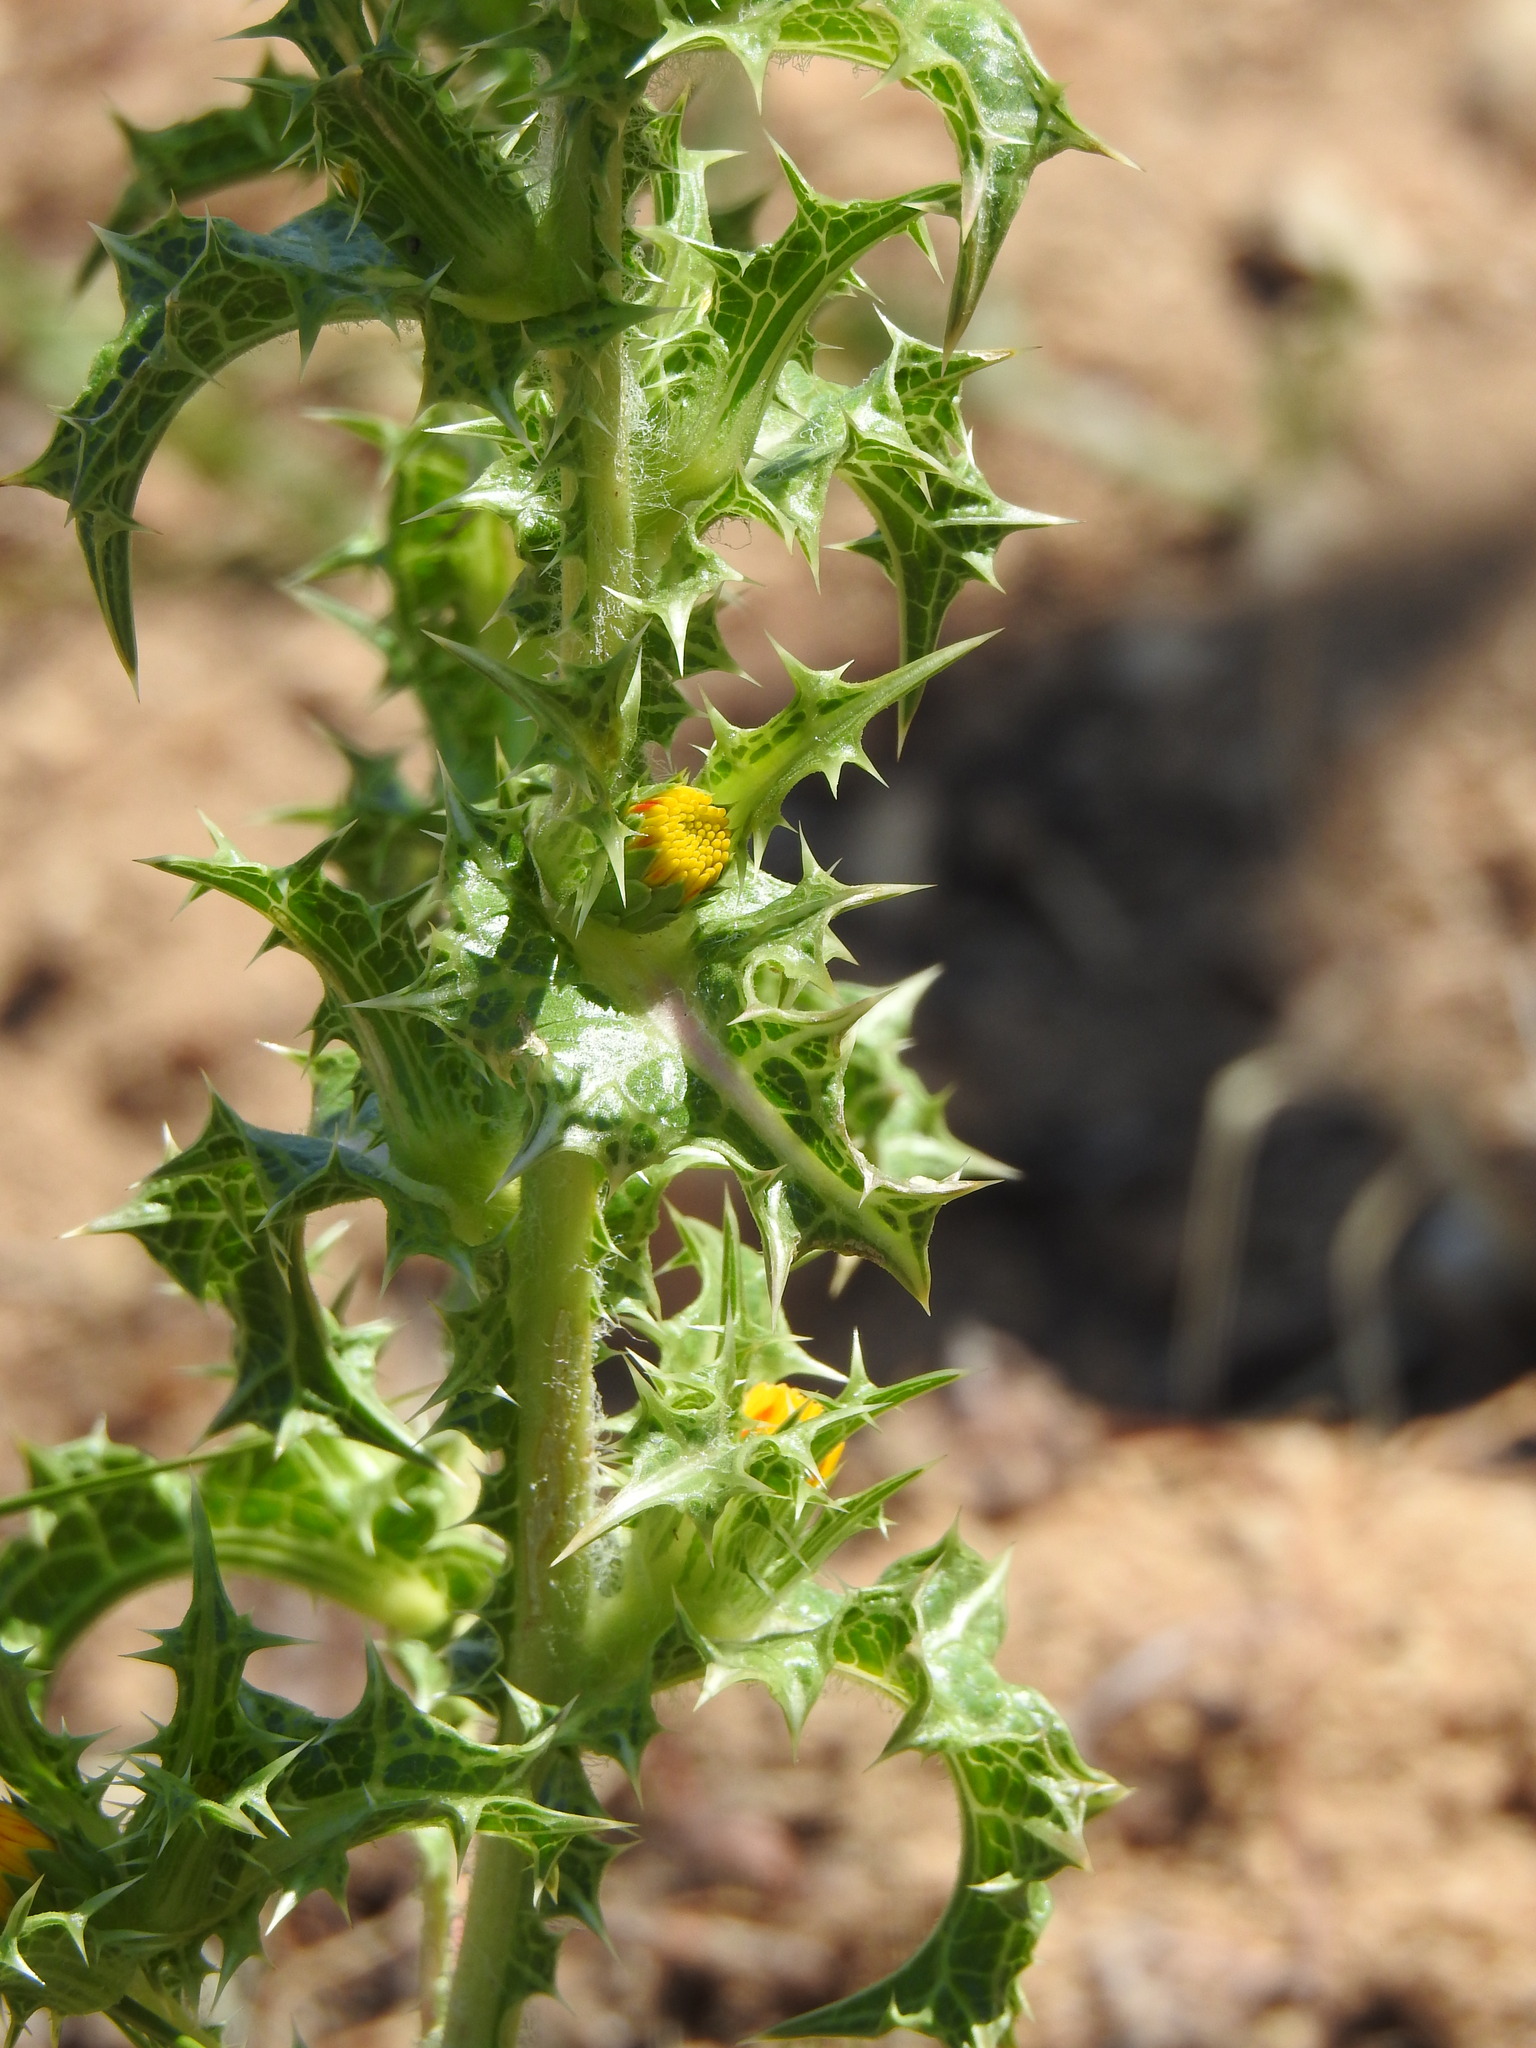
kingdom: Plantae
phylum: Tracheophyta
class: Magnoliopsida
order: Asterales
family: Asteraceae
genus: Scolymus
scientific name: Scolymus hispanicus
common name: Golden thistle
